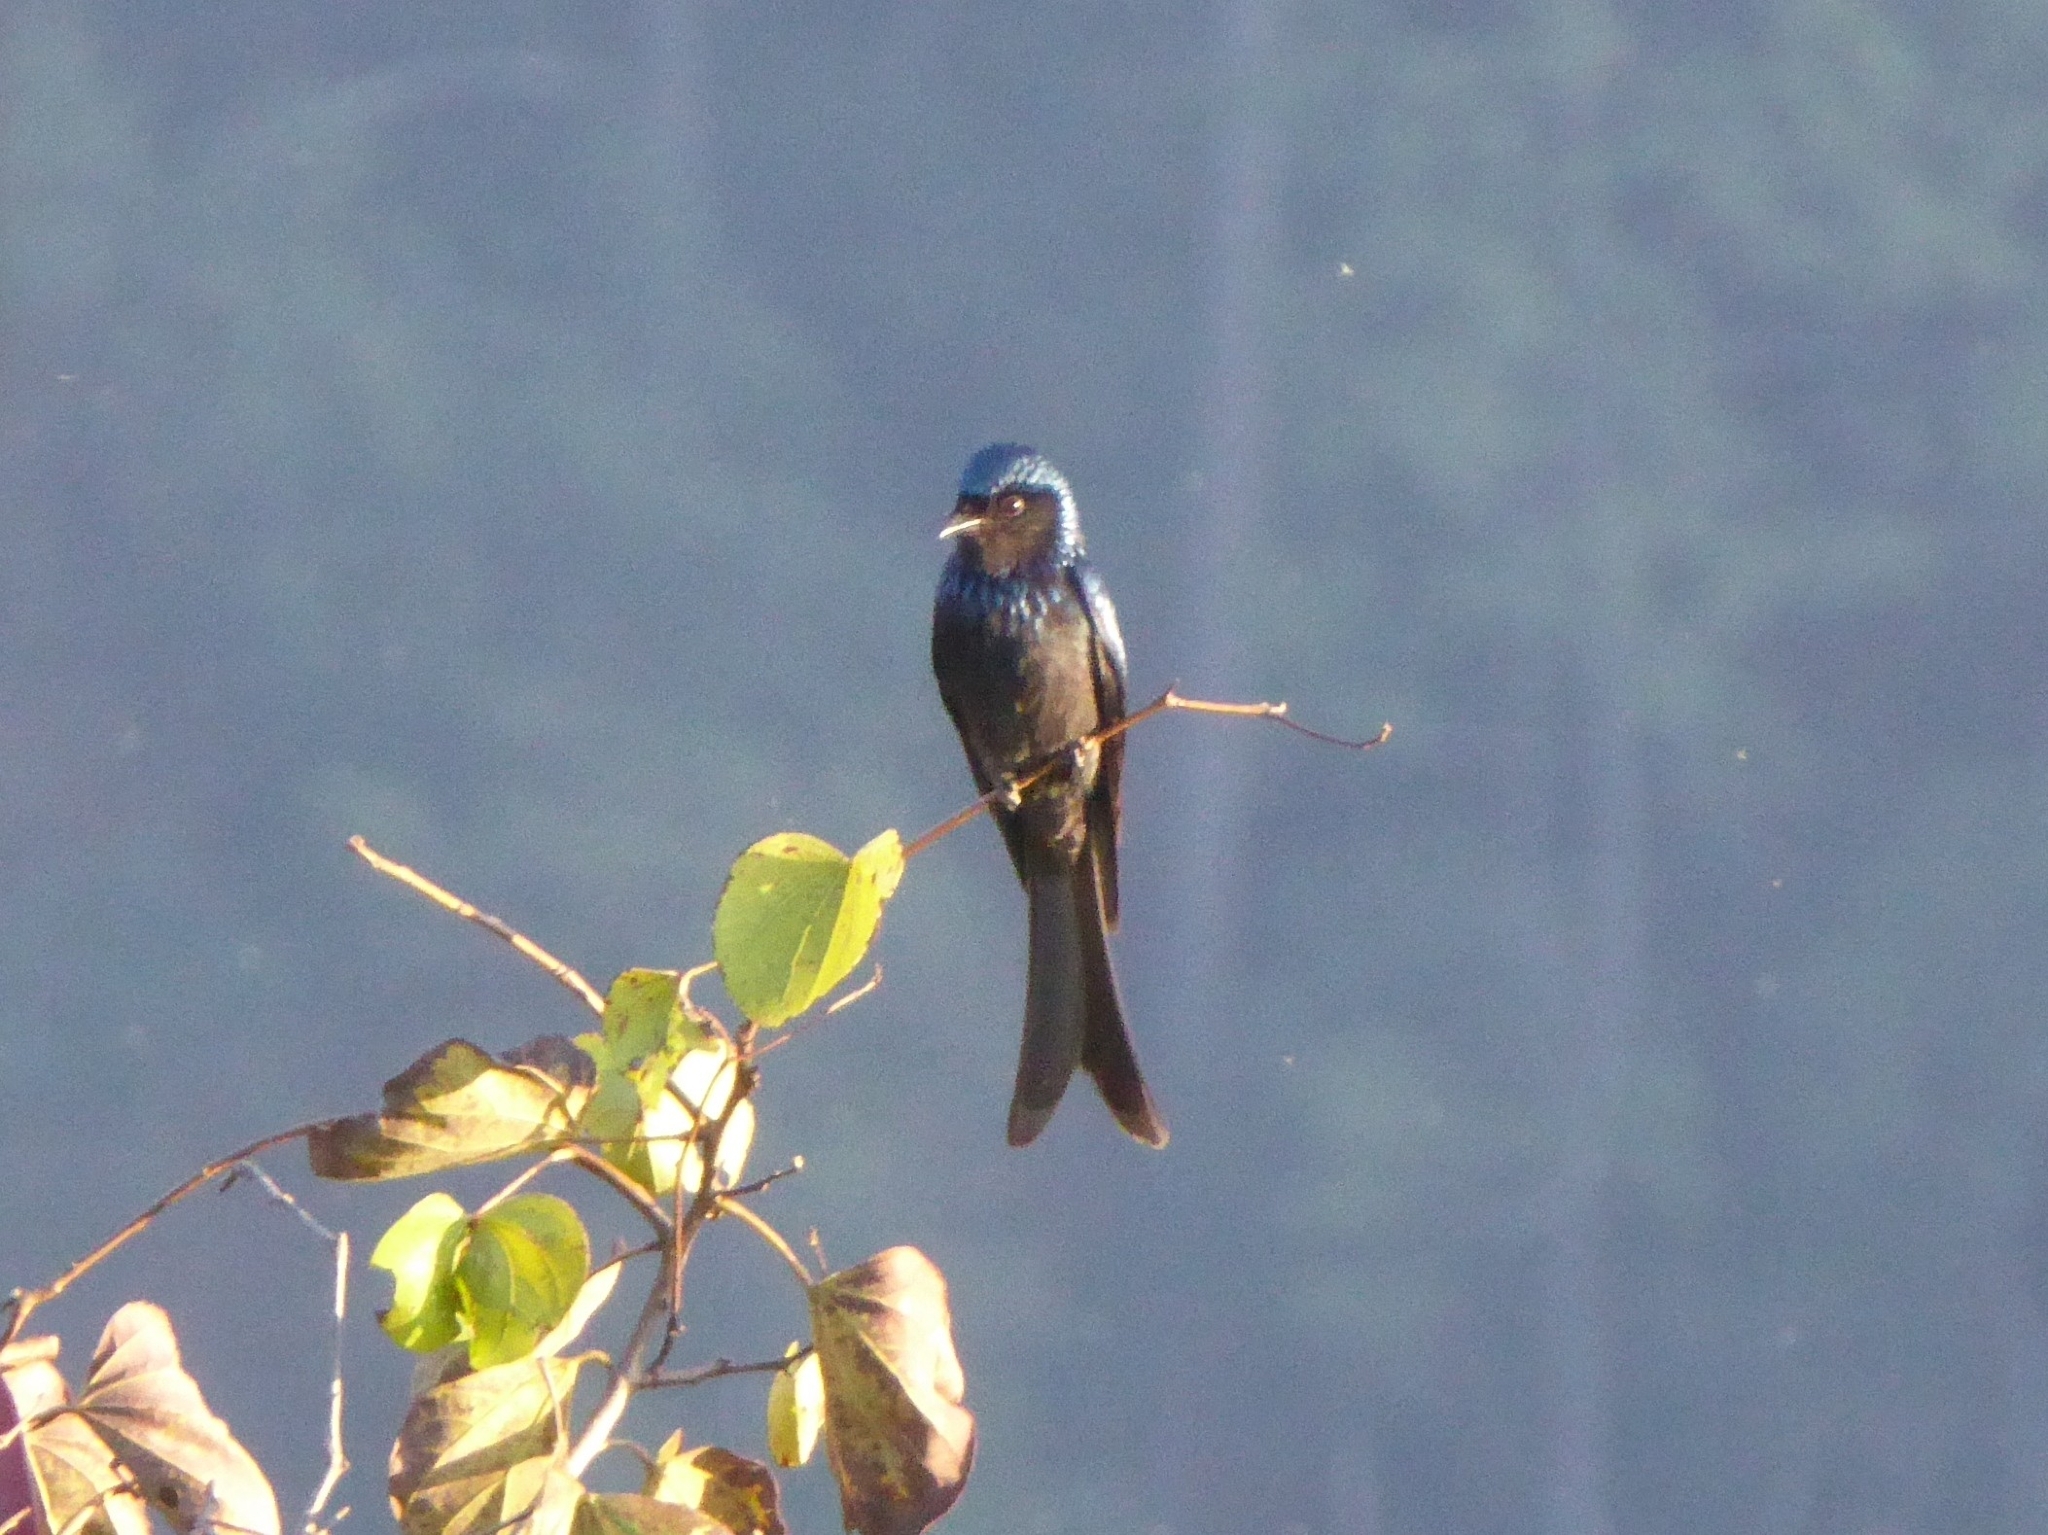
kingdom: Animalia
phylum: Chordata
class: Aves
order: Passeriformes
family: Dicruridae
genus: Dicrurus
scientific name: Dicrurus aeneus
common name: Bronzed drongo
